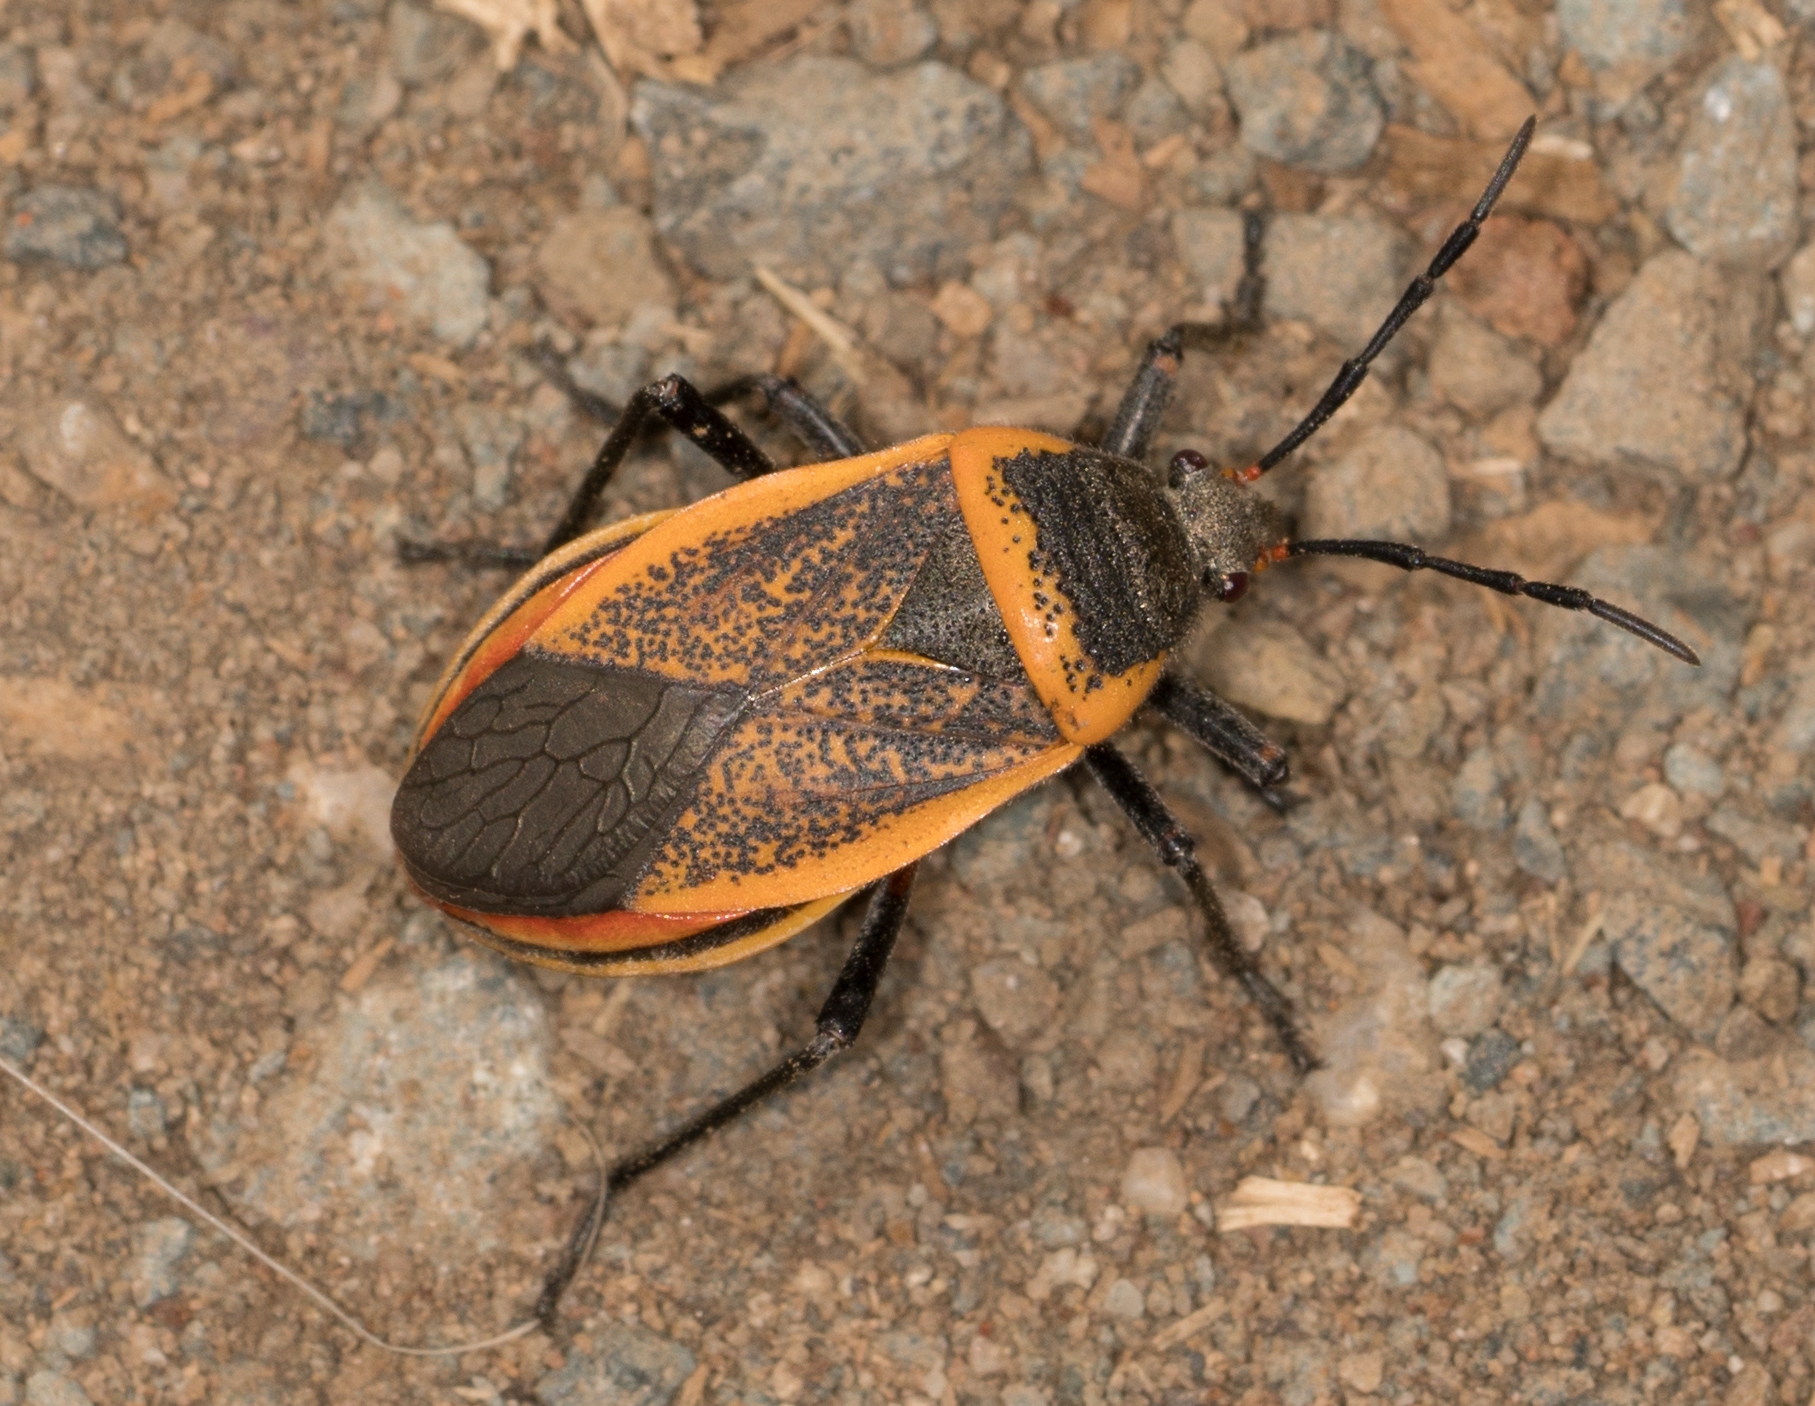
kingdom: Animalia
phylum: Arthropoda
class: Insecta
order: Hemiptera
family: Largidae
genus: Largus
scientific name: Largus californicus
